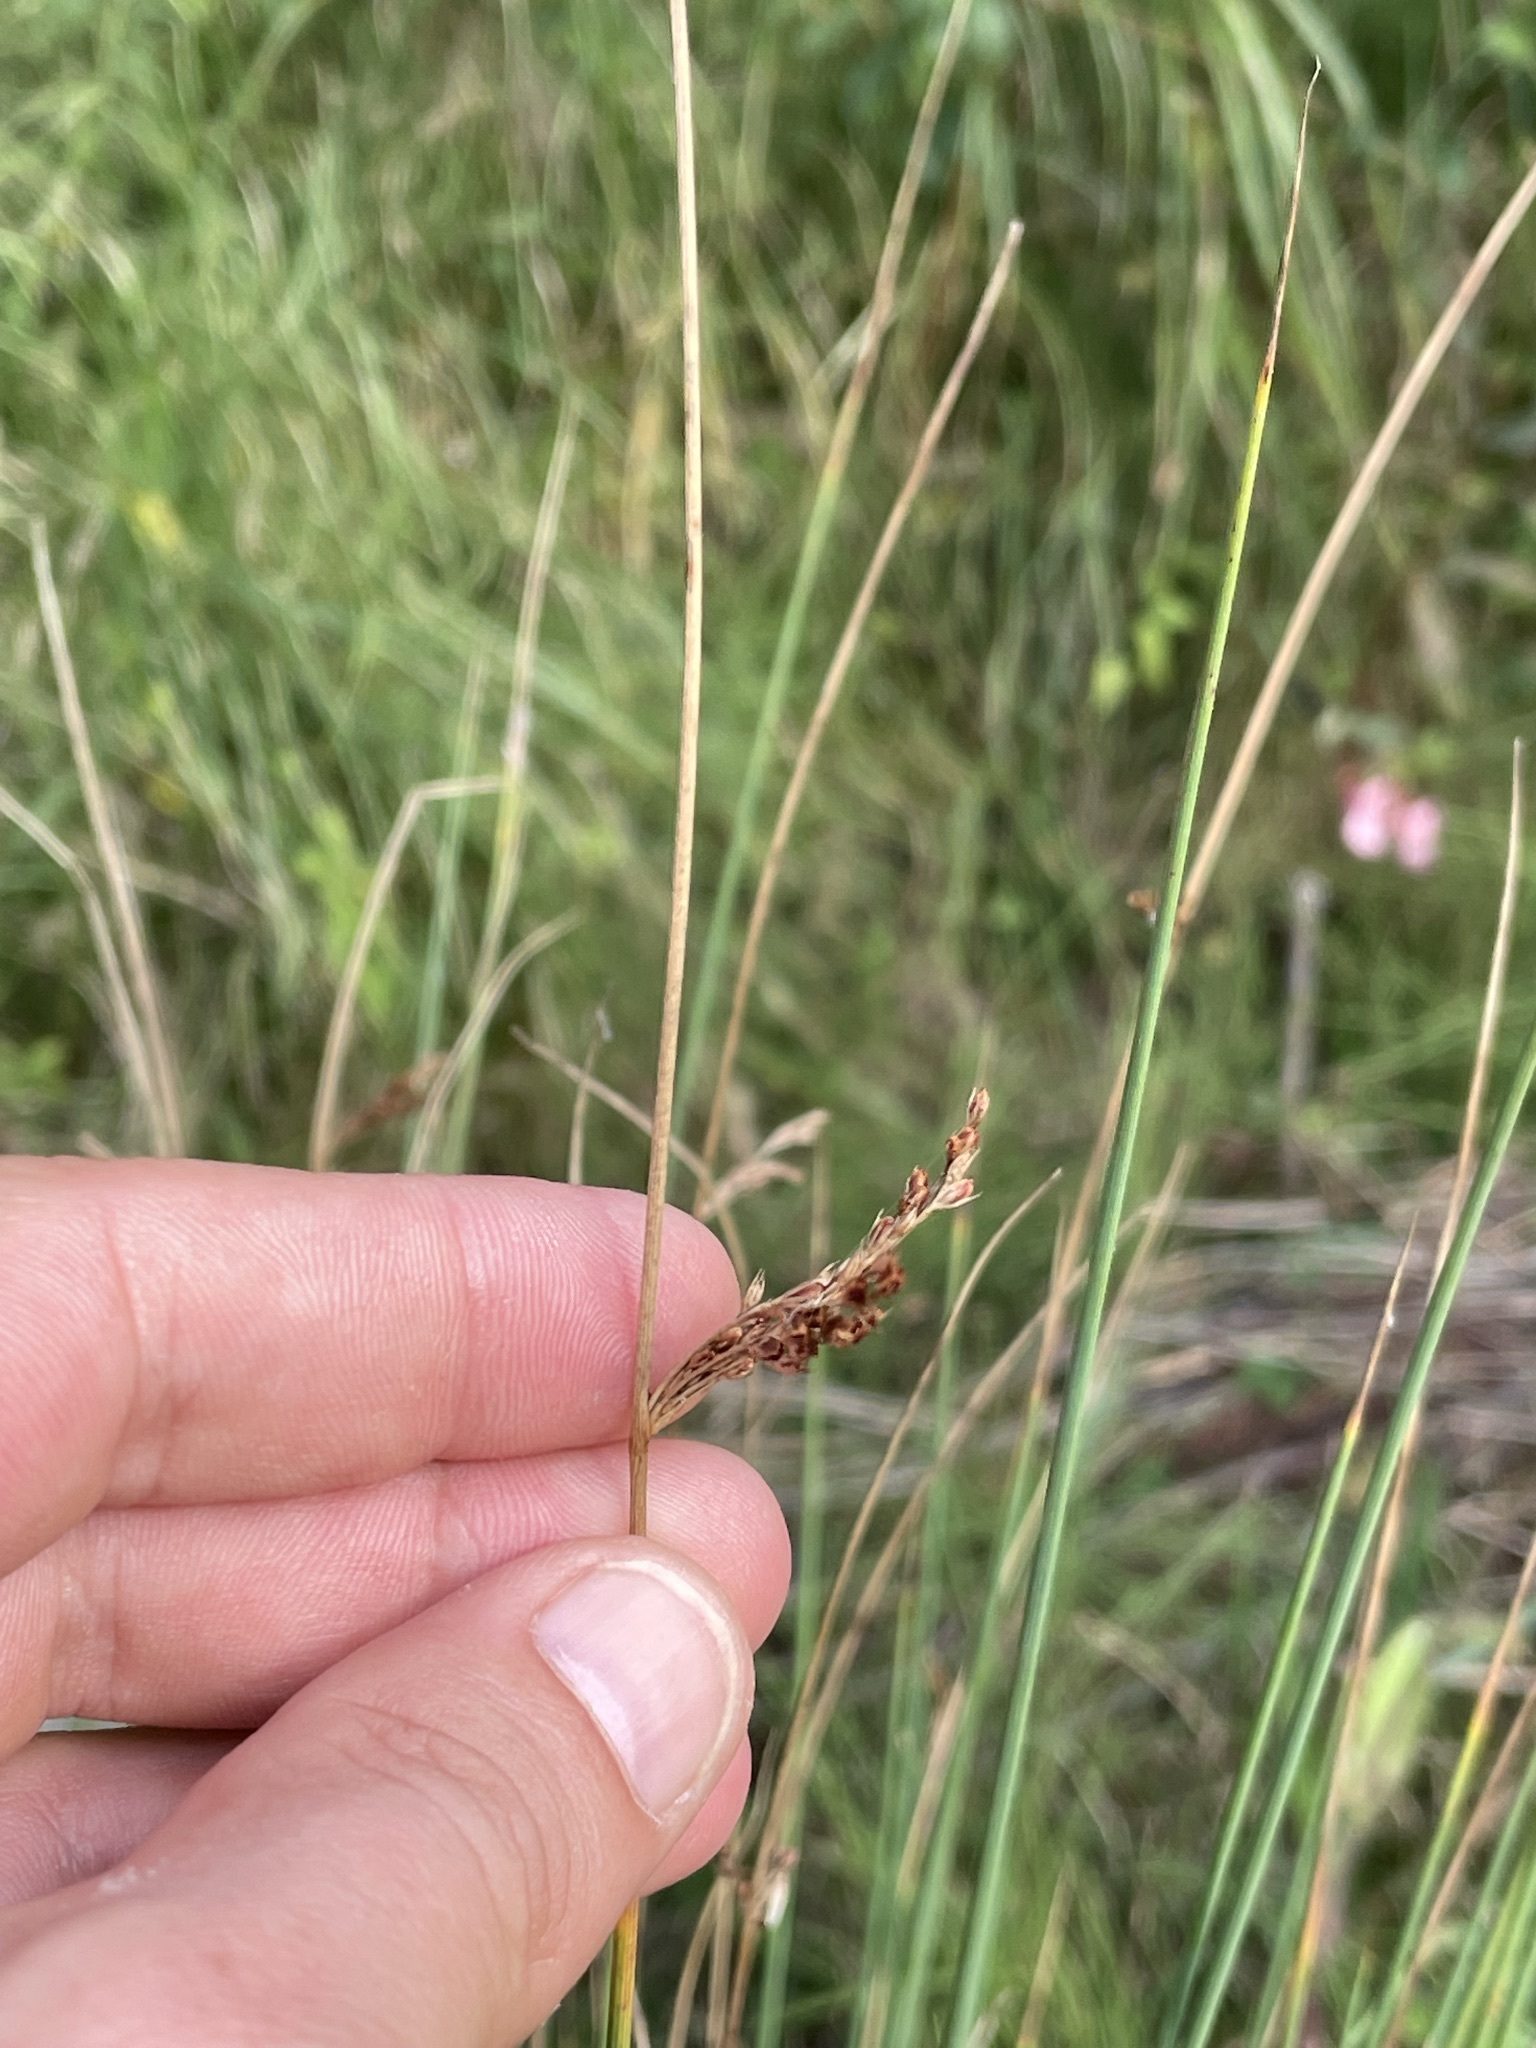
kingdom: Plantae
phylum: Tracheophyta
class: Liliopsida
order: Poales
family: Juncaceae
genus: Juncus
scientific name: Juncus inflexus
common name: Hard rush
